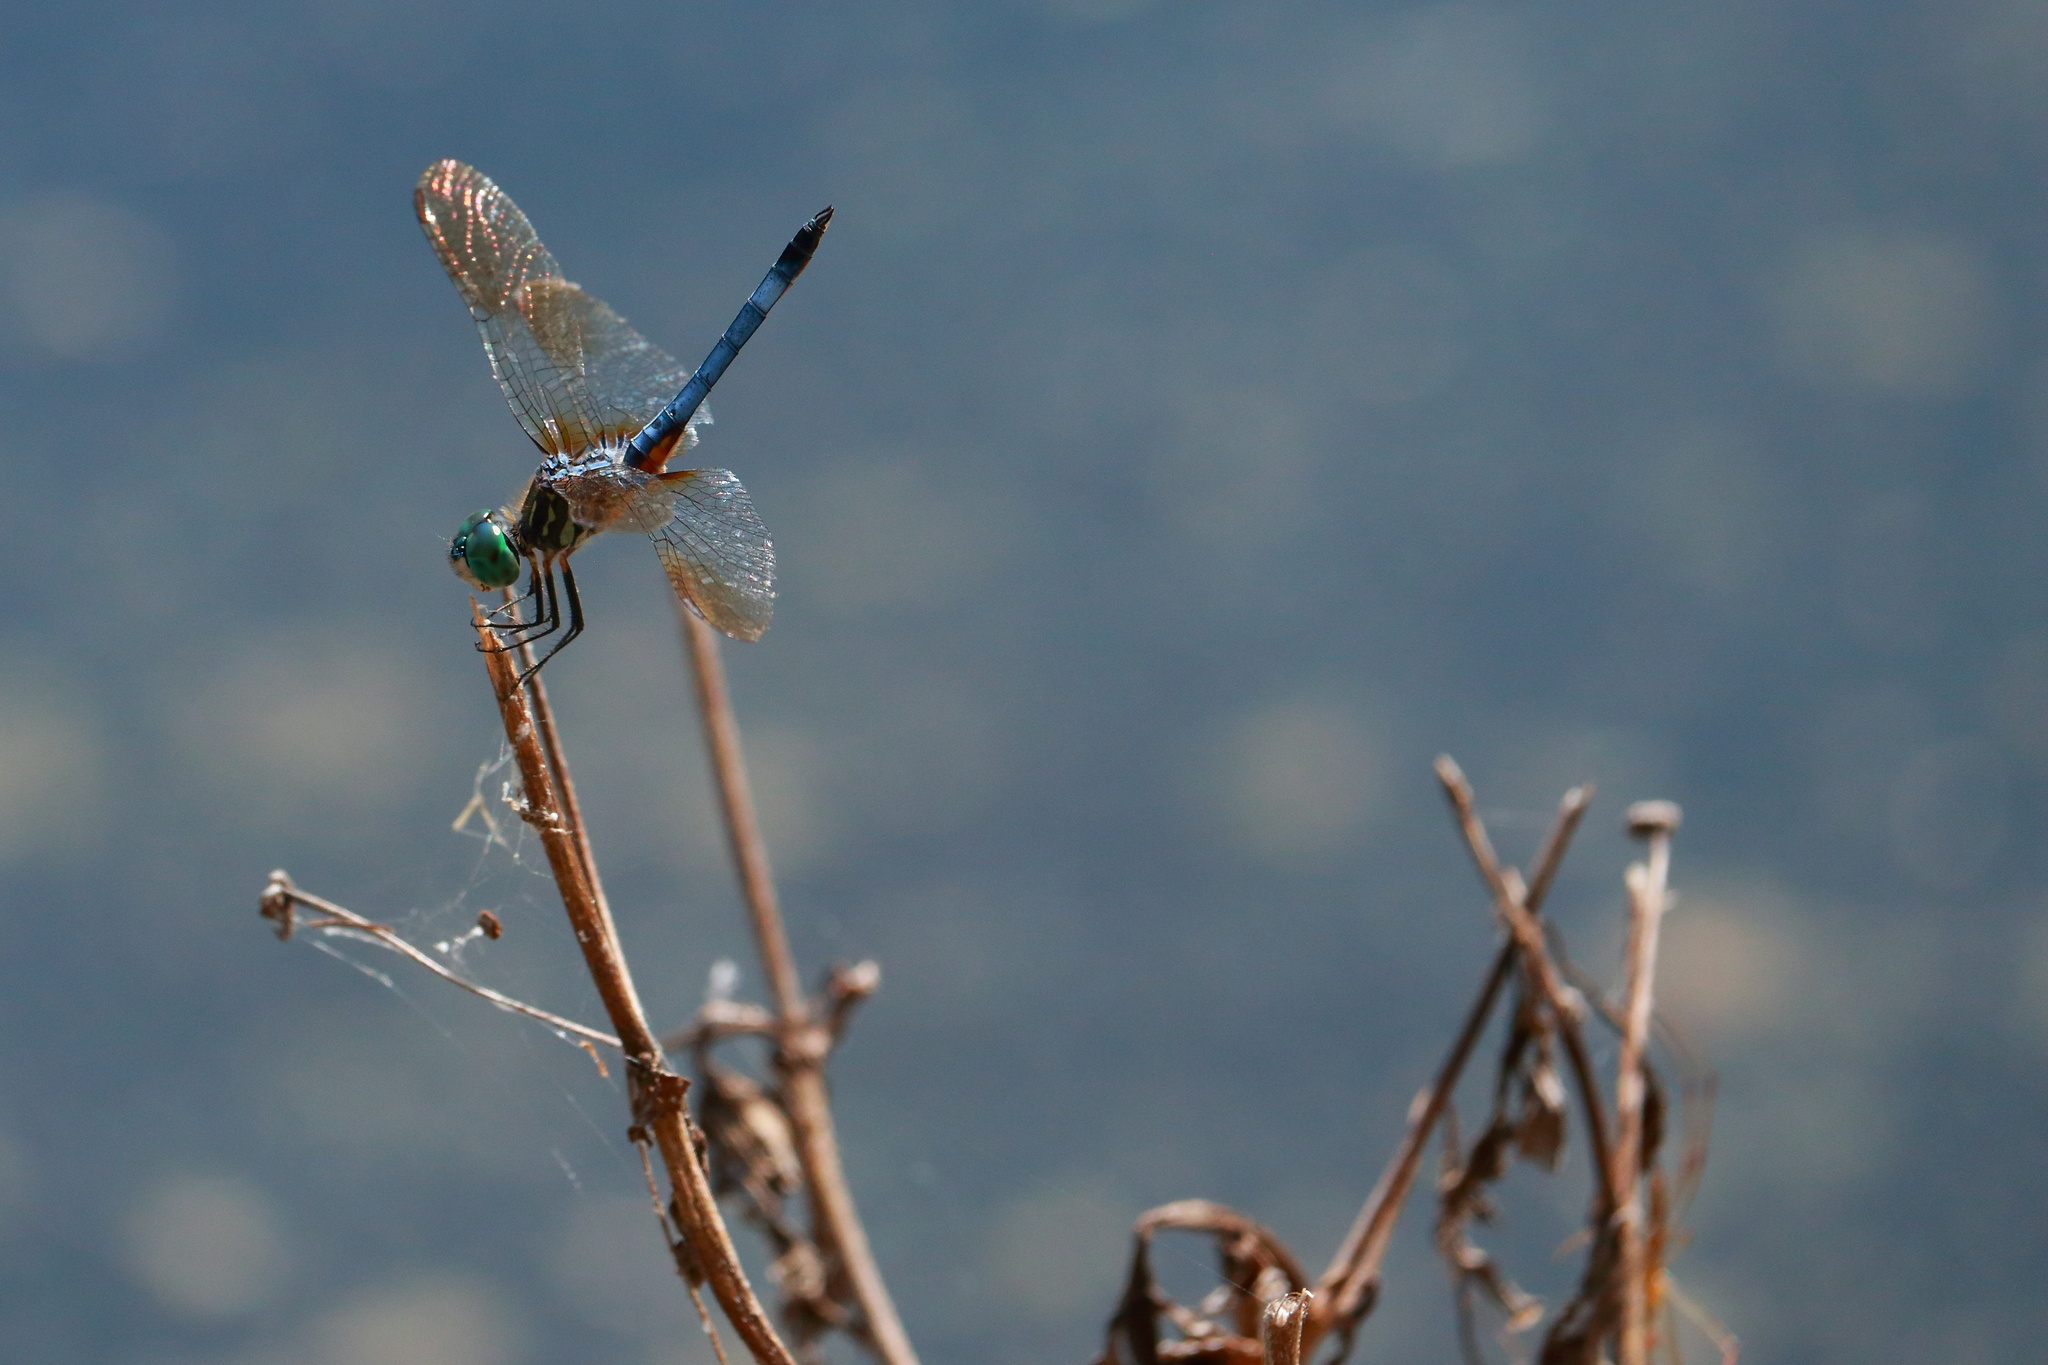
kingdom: Animalia
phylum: Arthropoda
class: Insecta
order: Odonata
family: Libellulidae
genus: Pachydiplax
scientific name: Pachydiplax longipennis
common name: Blue dasher
